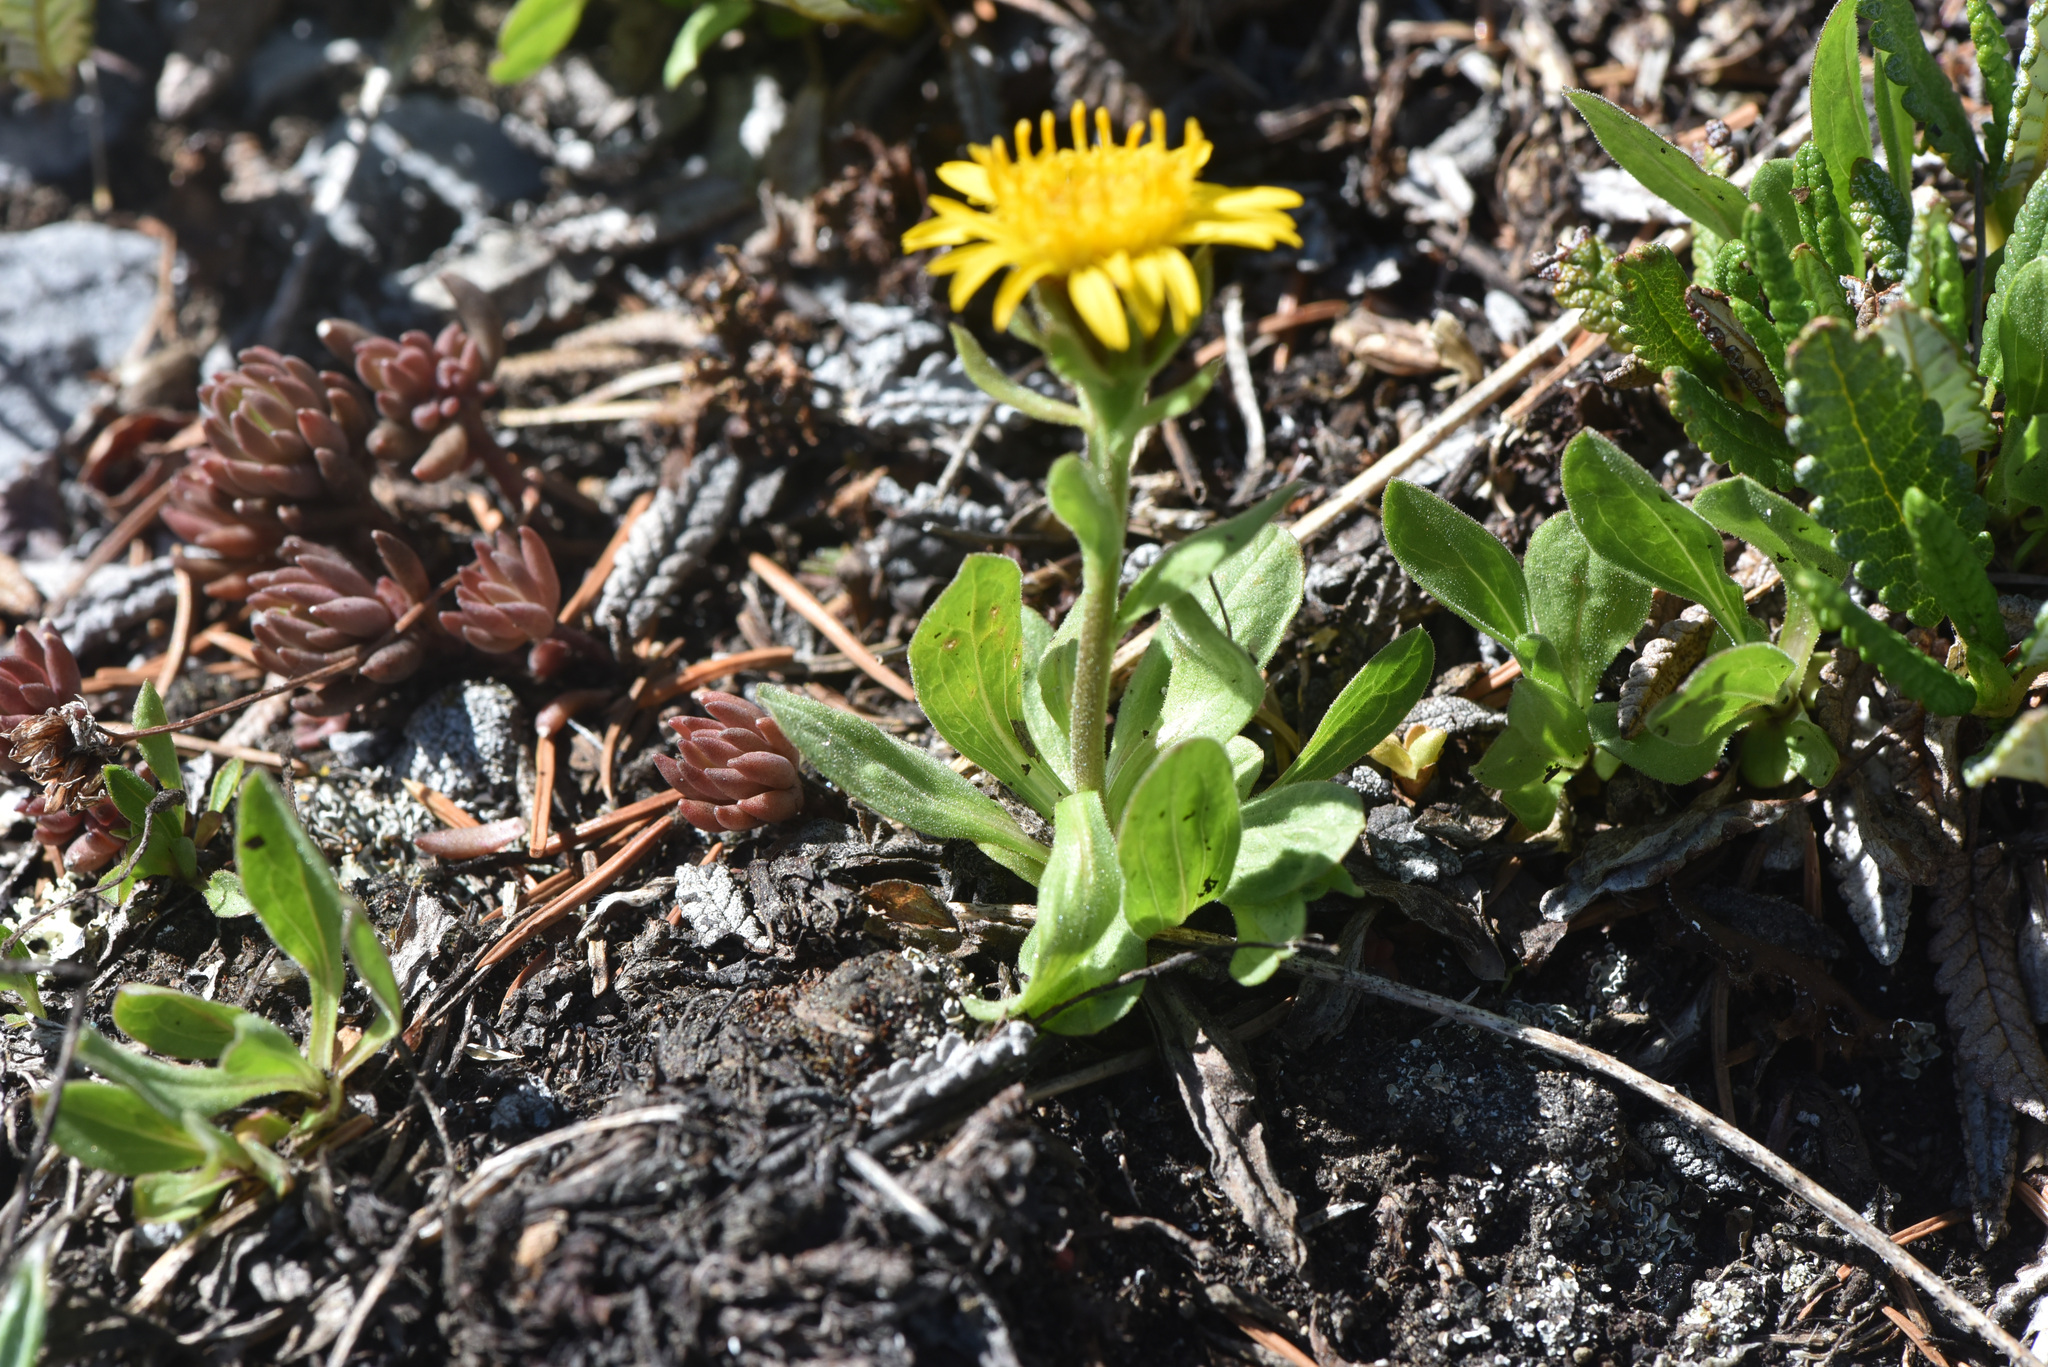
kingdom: Plantae
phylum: Tracheophyta
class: Magnoliopsida
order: Asterales
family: Asteraceae
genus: Tonestus
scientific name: Tonestus lyallii
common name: Lyall's goldenweed
